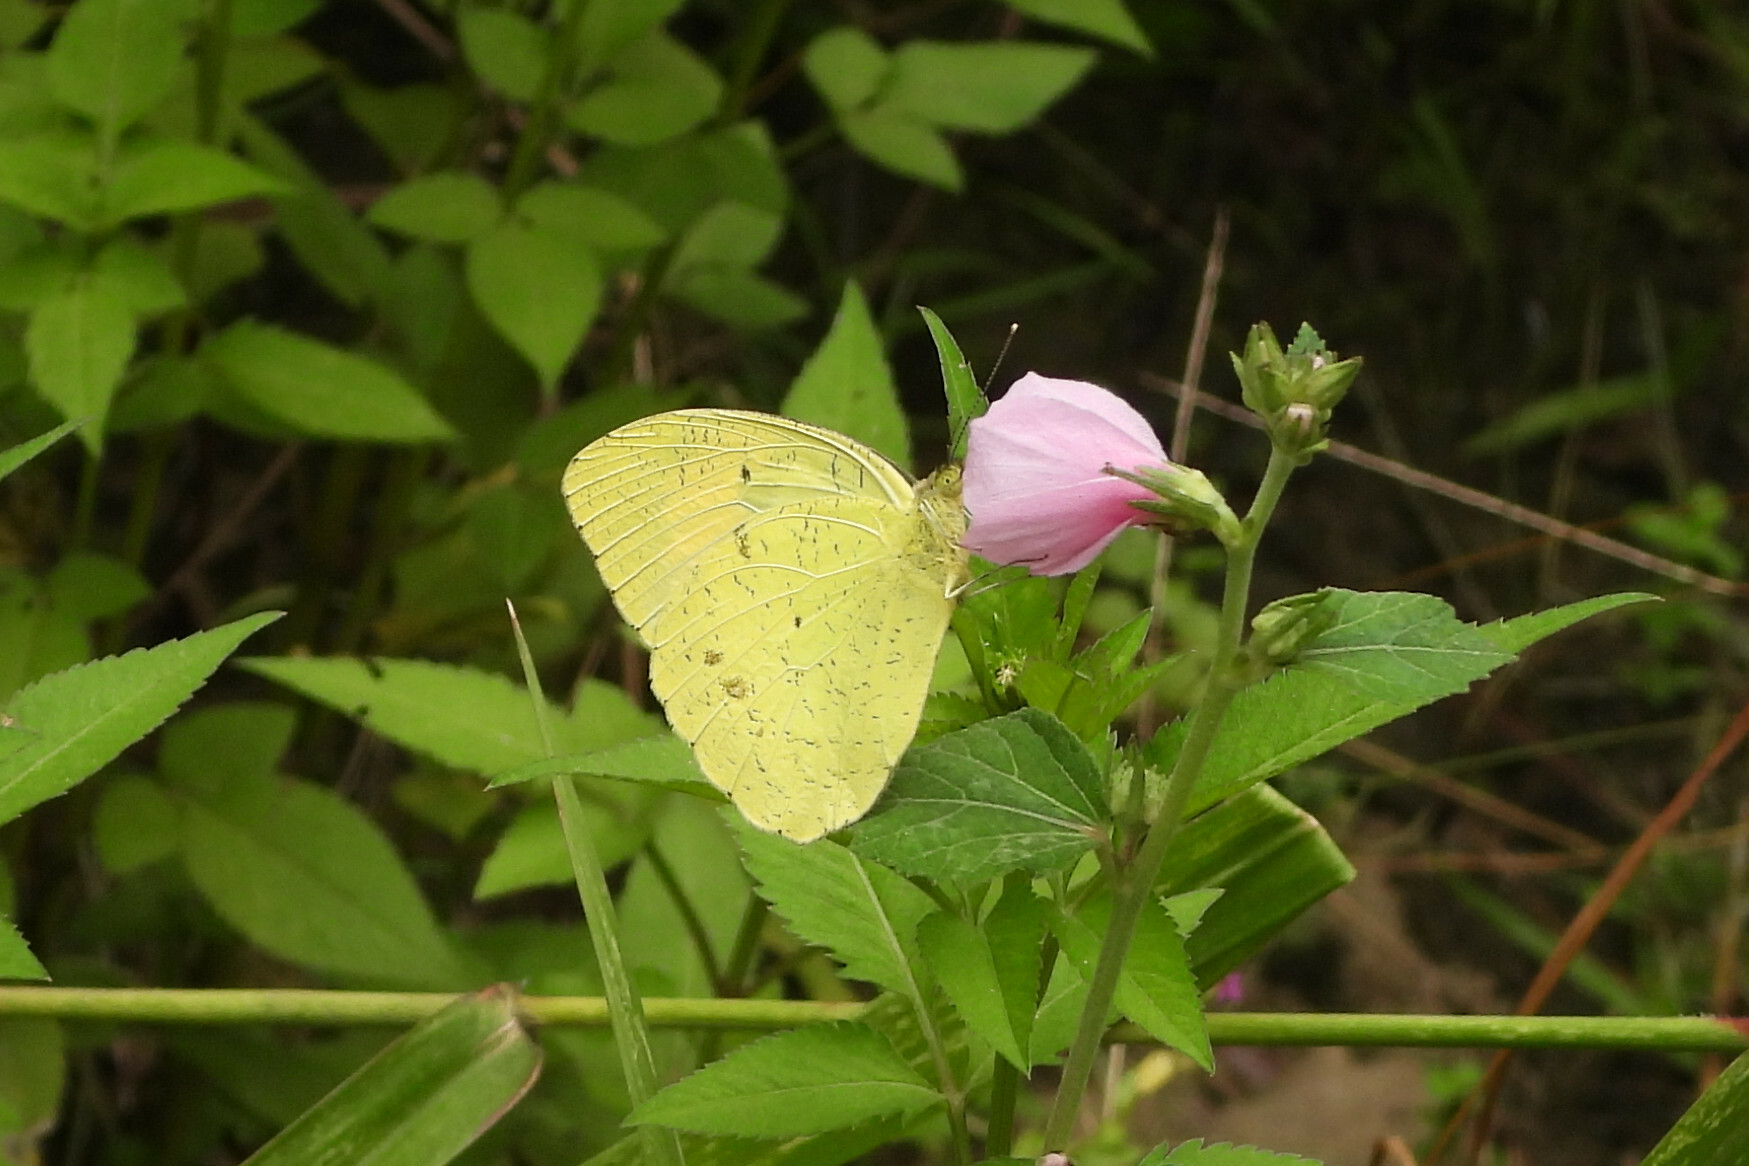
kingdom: Animalia
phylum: Arthropoda
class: Insecta
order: Lepidoptera
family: Pieridae
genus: Ixias
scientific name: Ixias pyrene
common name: Yellow orange tip
